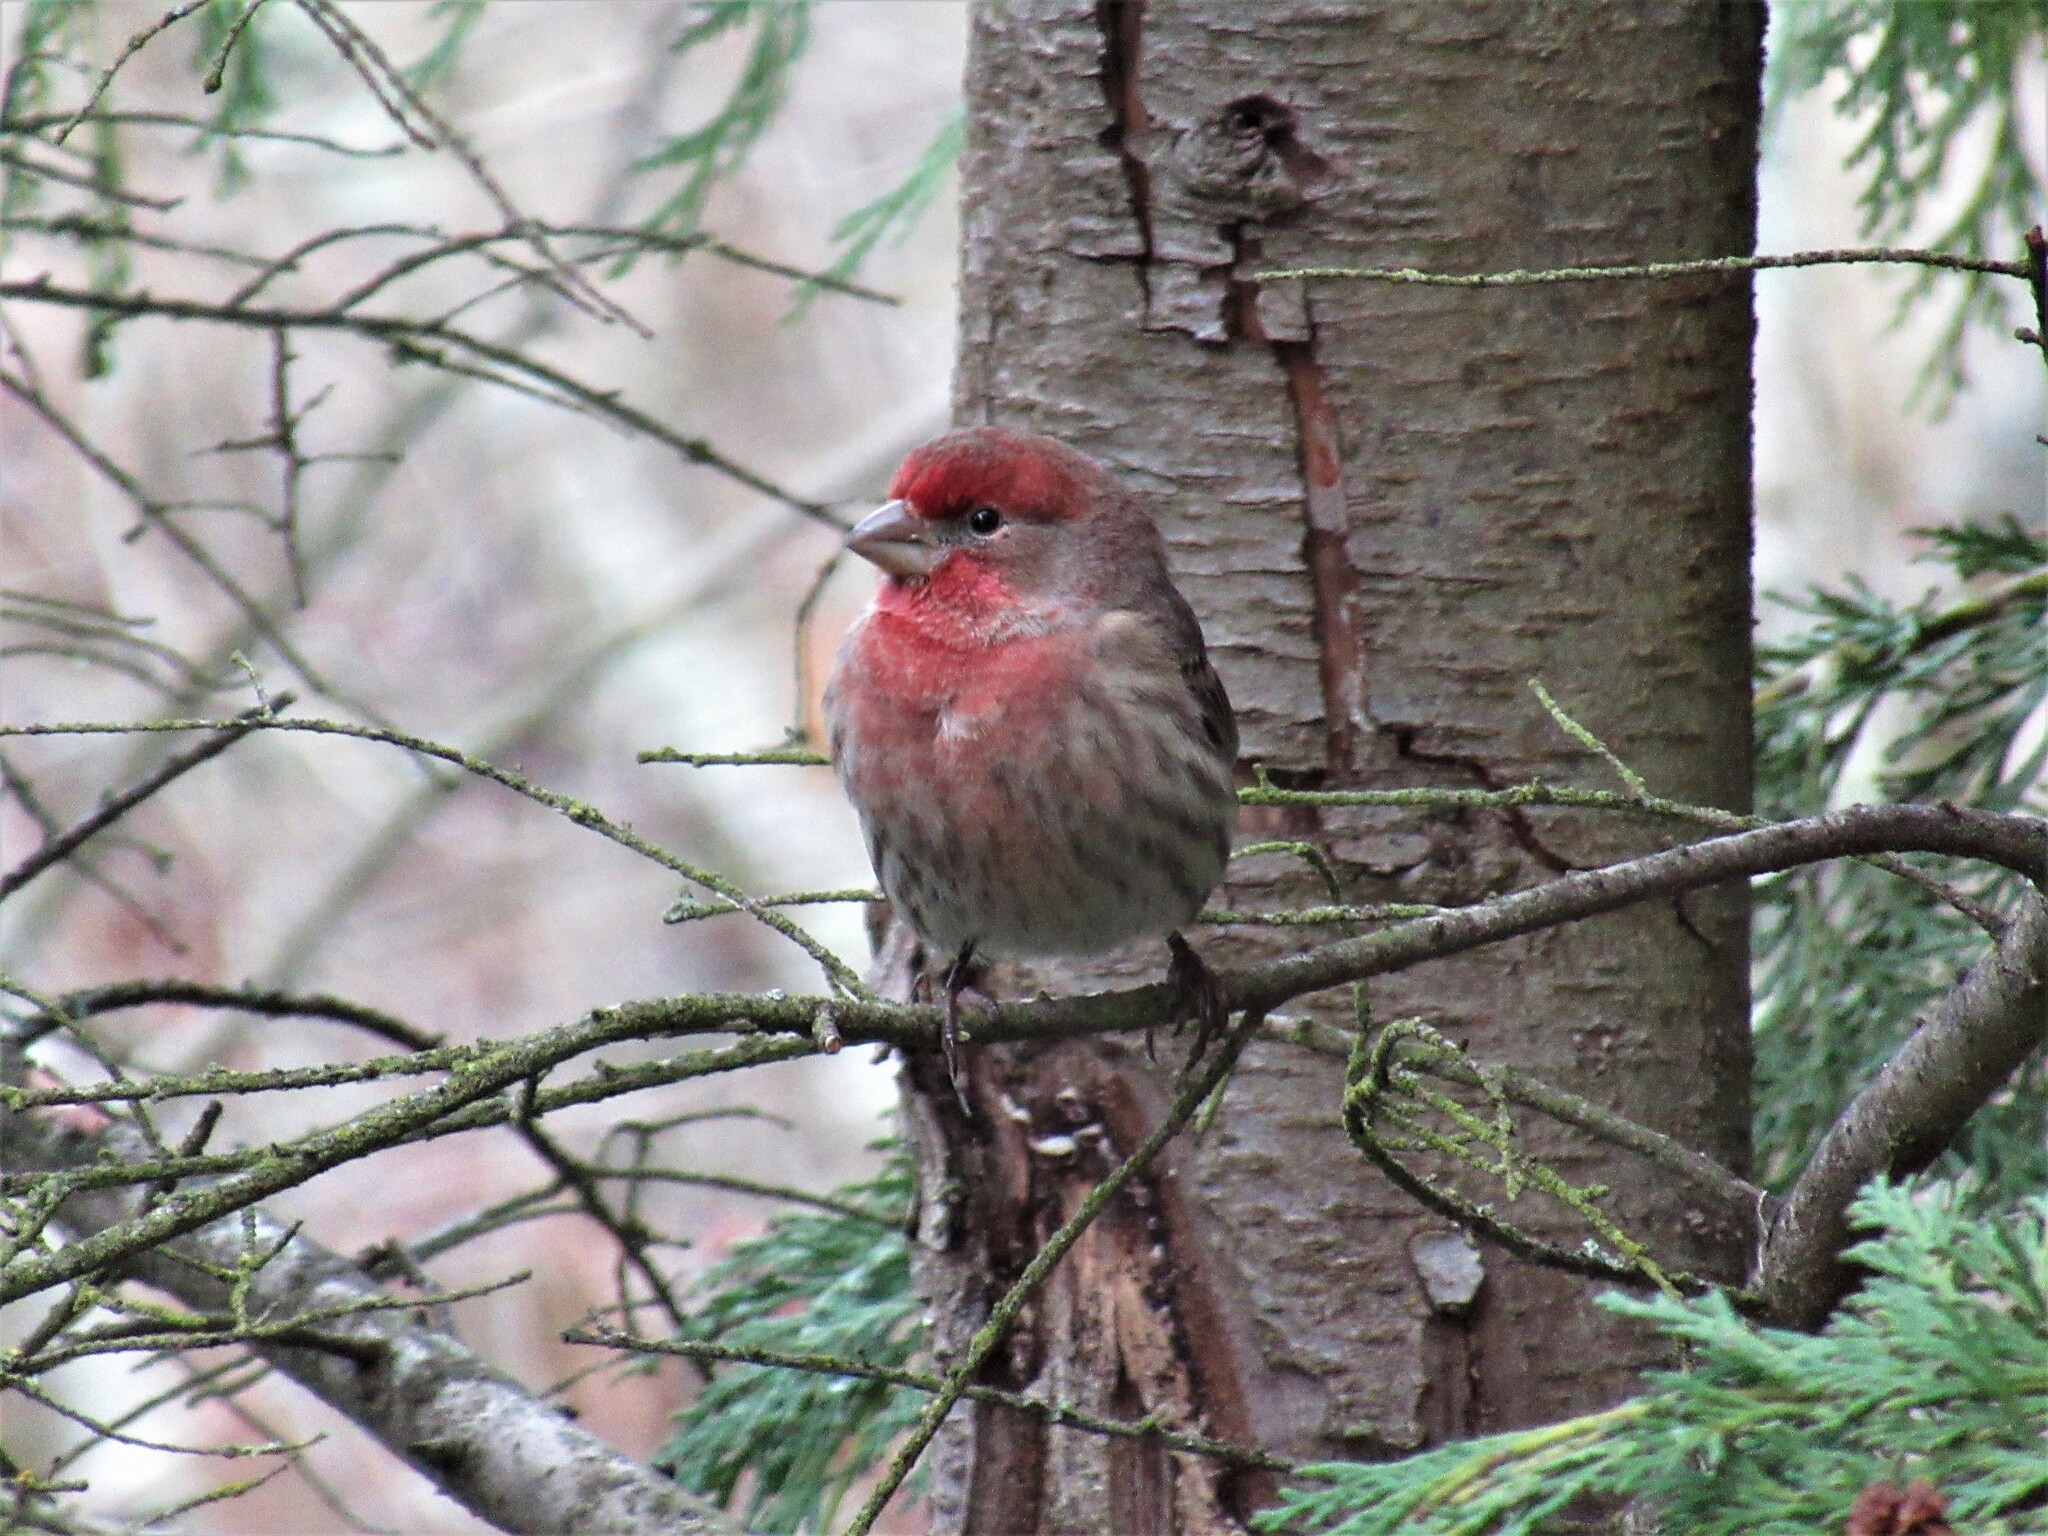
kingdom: Animalia
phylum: Chordata
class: Aves
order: Passeriformes
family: Fringillidae
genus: Haemorhous
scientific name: Haemorhous mexicanus
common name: House finch
